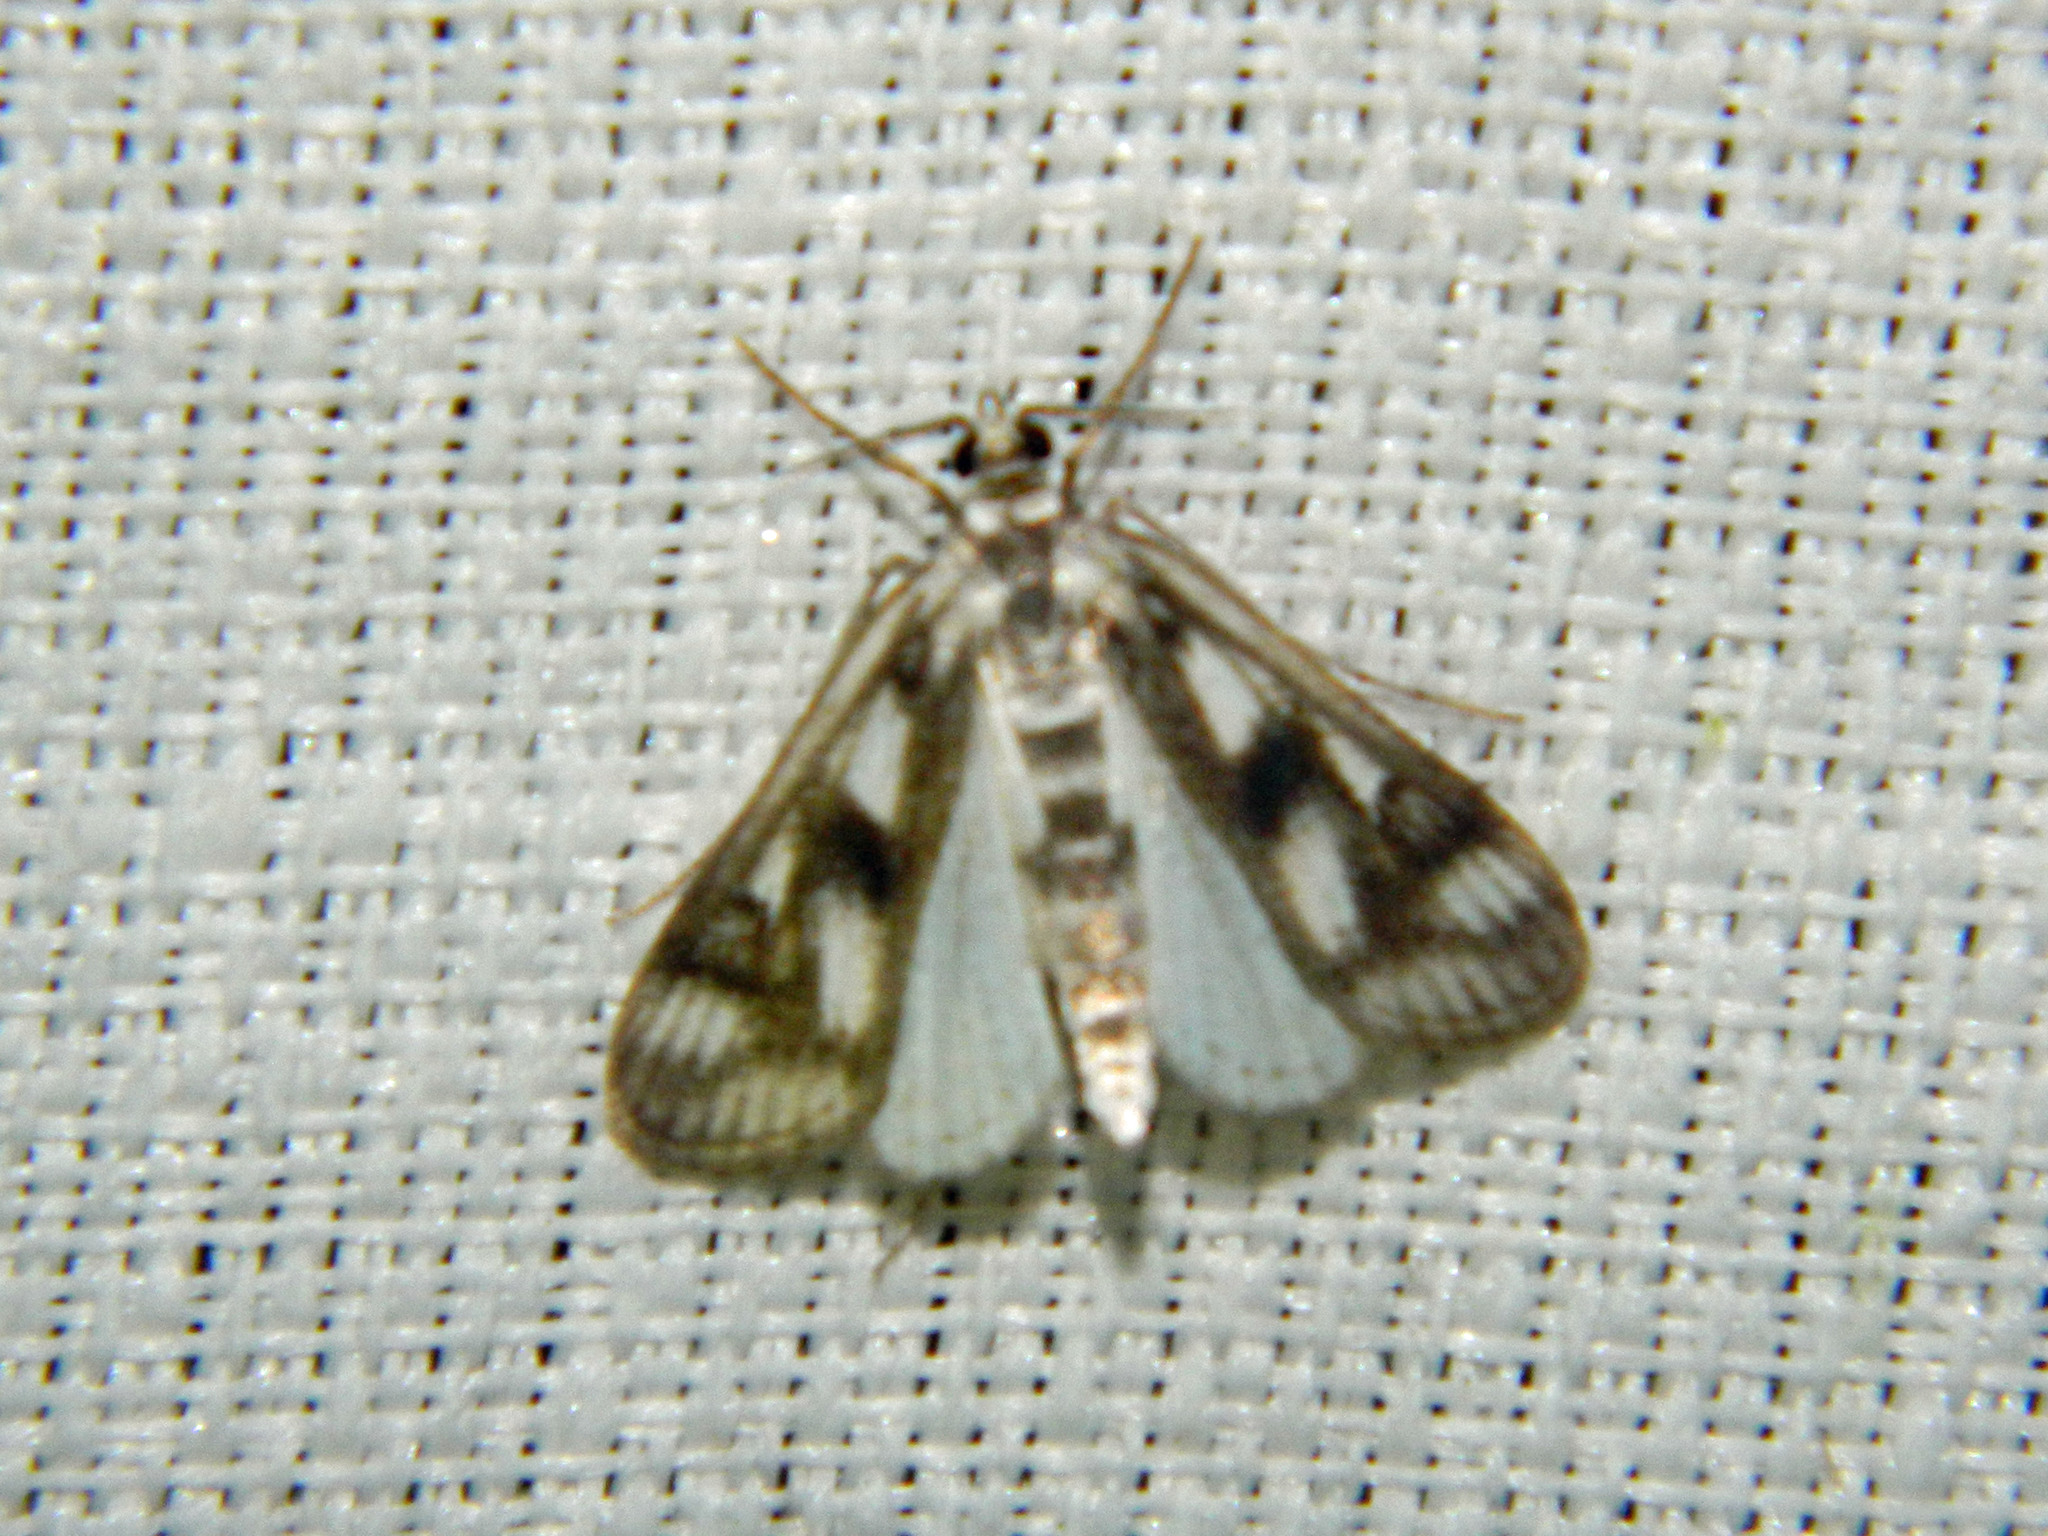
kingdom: Animalia
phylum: Arthropoda
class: Insecta
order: Lepidoptera
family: Crambidae
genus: Parapoynx
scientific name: Parapoynx maculalis
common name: Polymorphic pondweed moth
